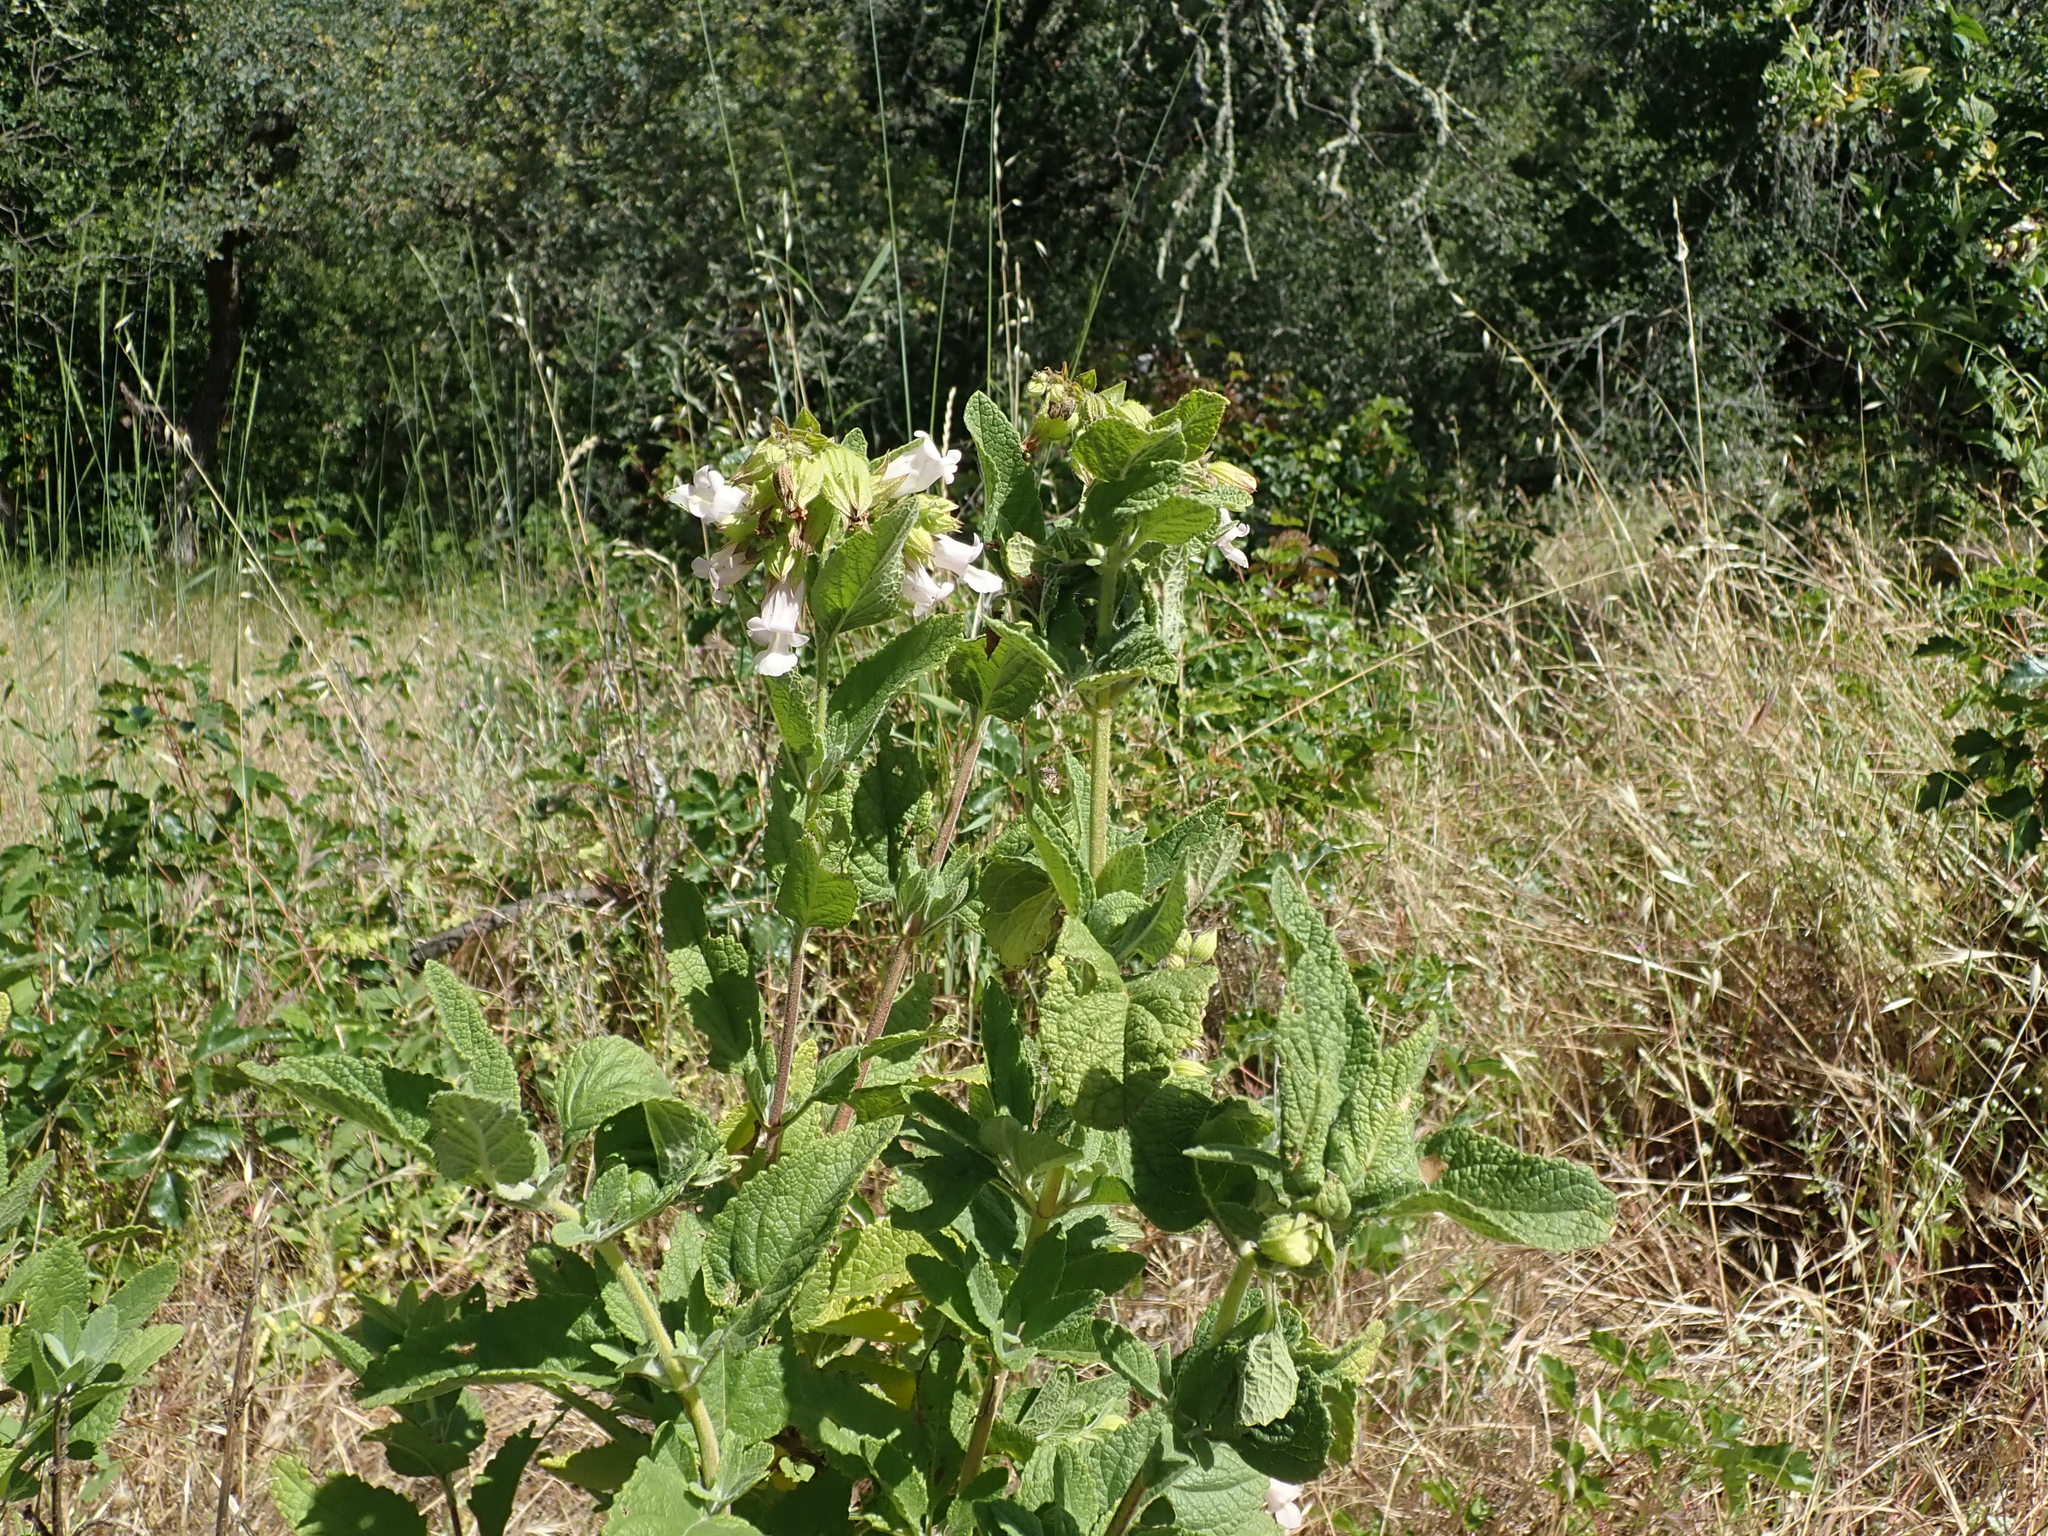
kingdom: Plantae
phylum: Tracheophyta
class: Magnoliopsida
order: Lamiales
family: Lamiaceae
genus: Lepechinia
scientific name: Lepechinia calycina
